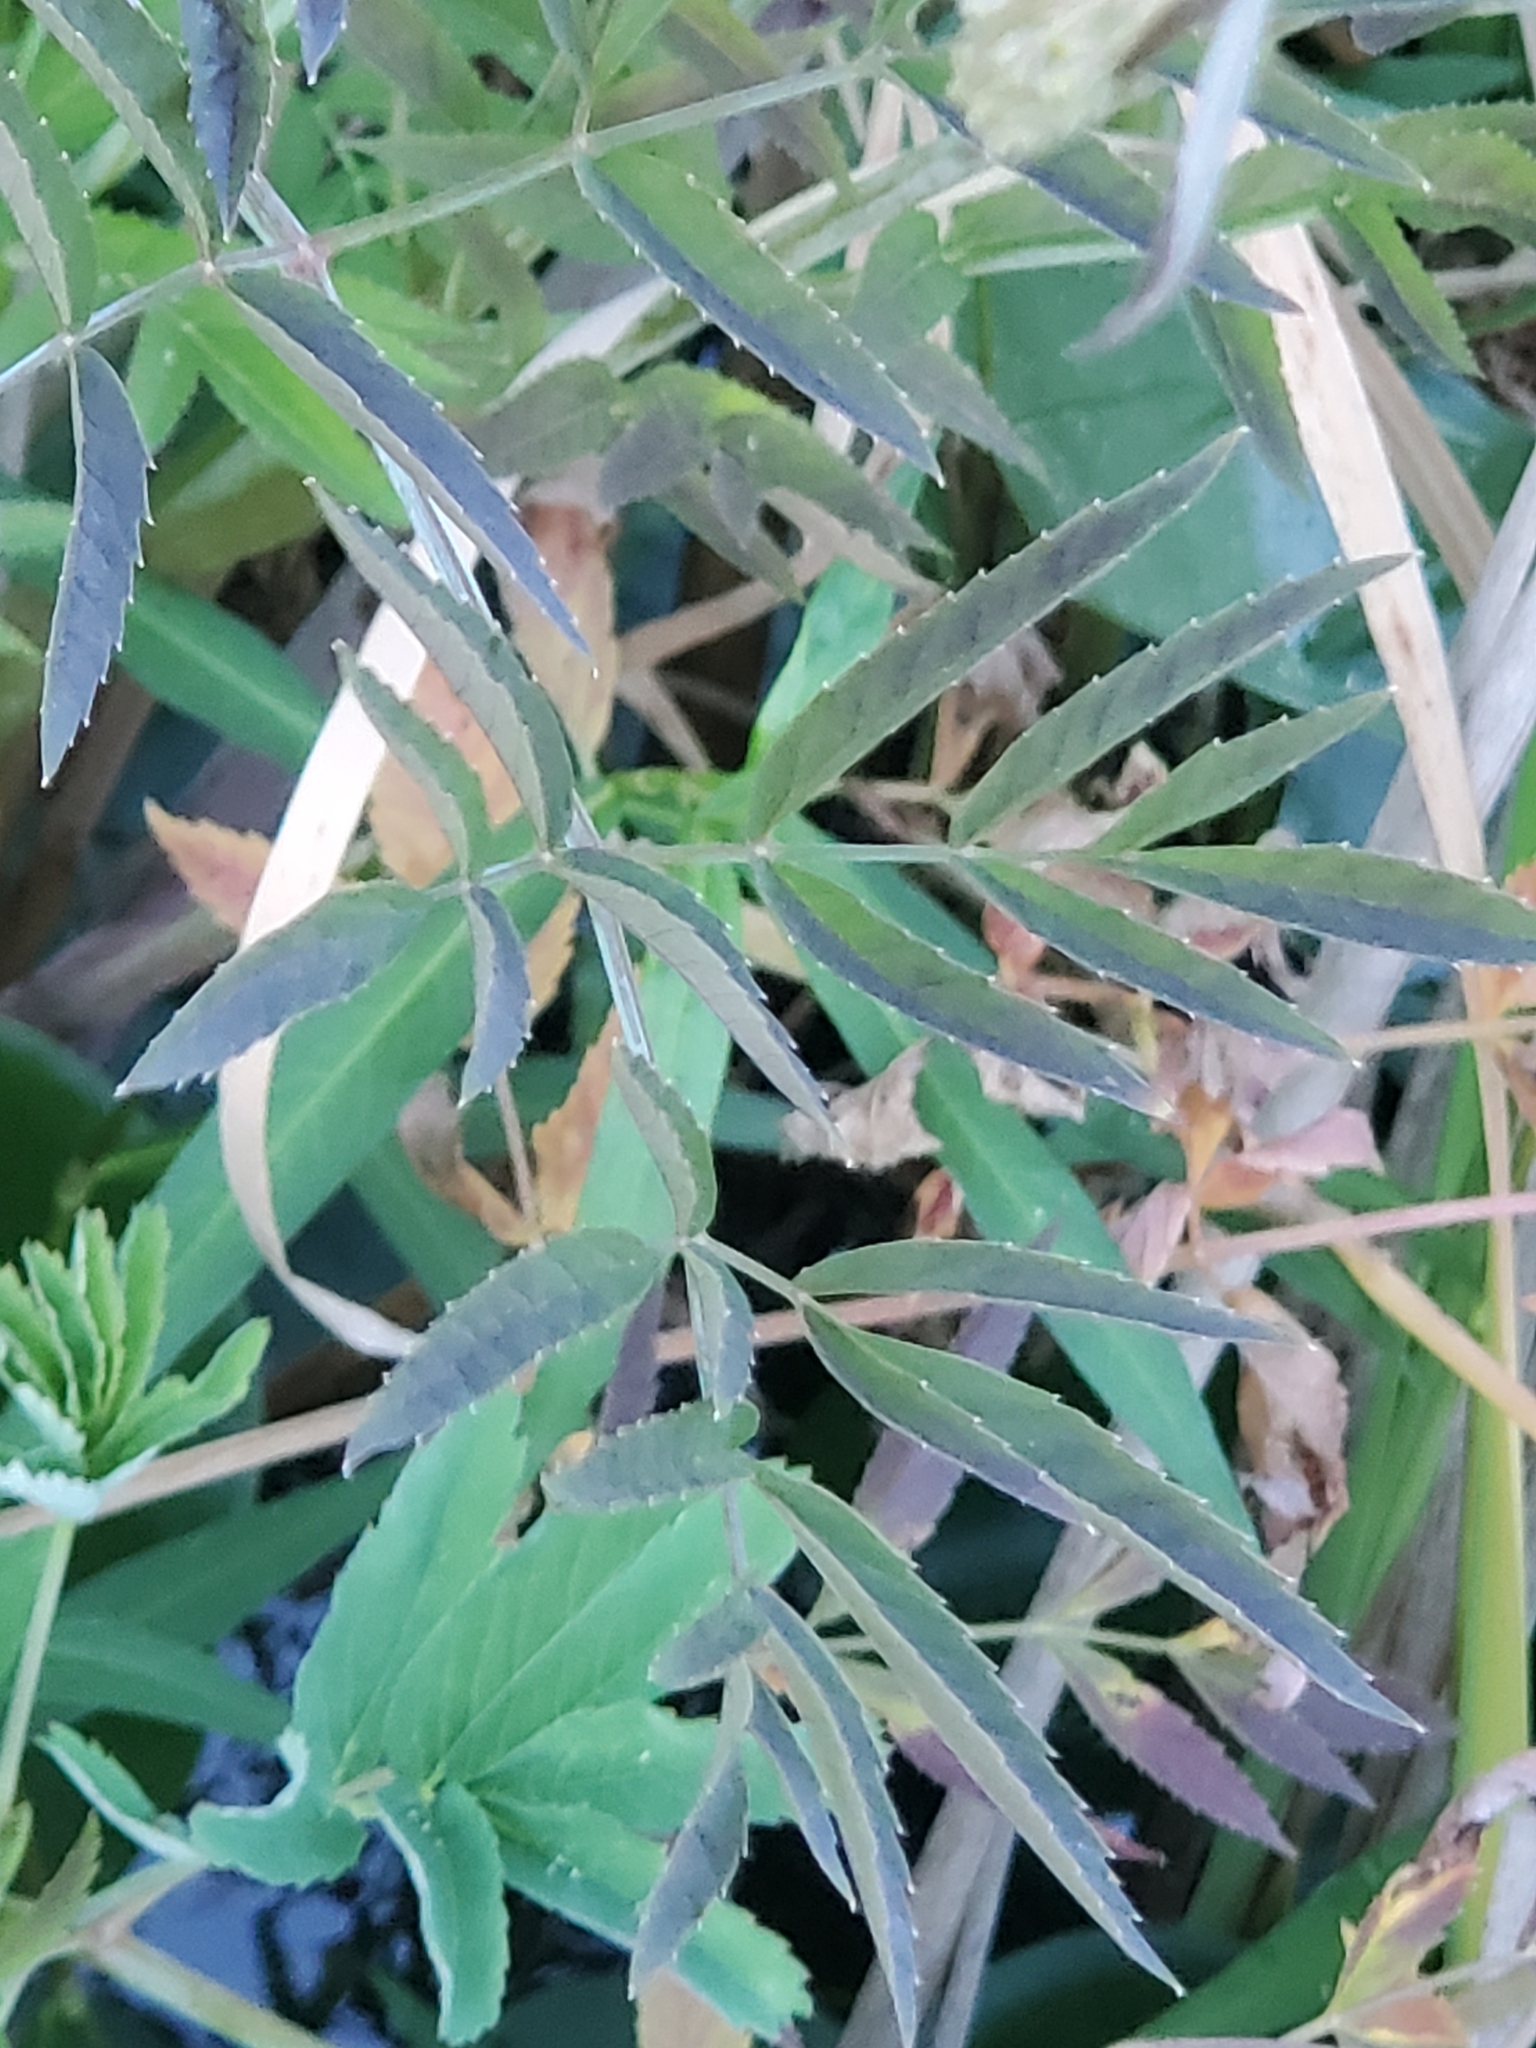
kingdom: Plantae
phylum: Tracheophyta
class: Magnoliopsida
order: Apiales
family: Apiaceae
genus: Cicuta
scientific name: Cicuta douglasii
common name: Western water-hemlock
